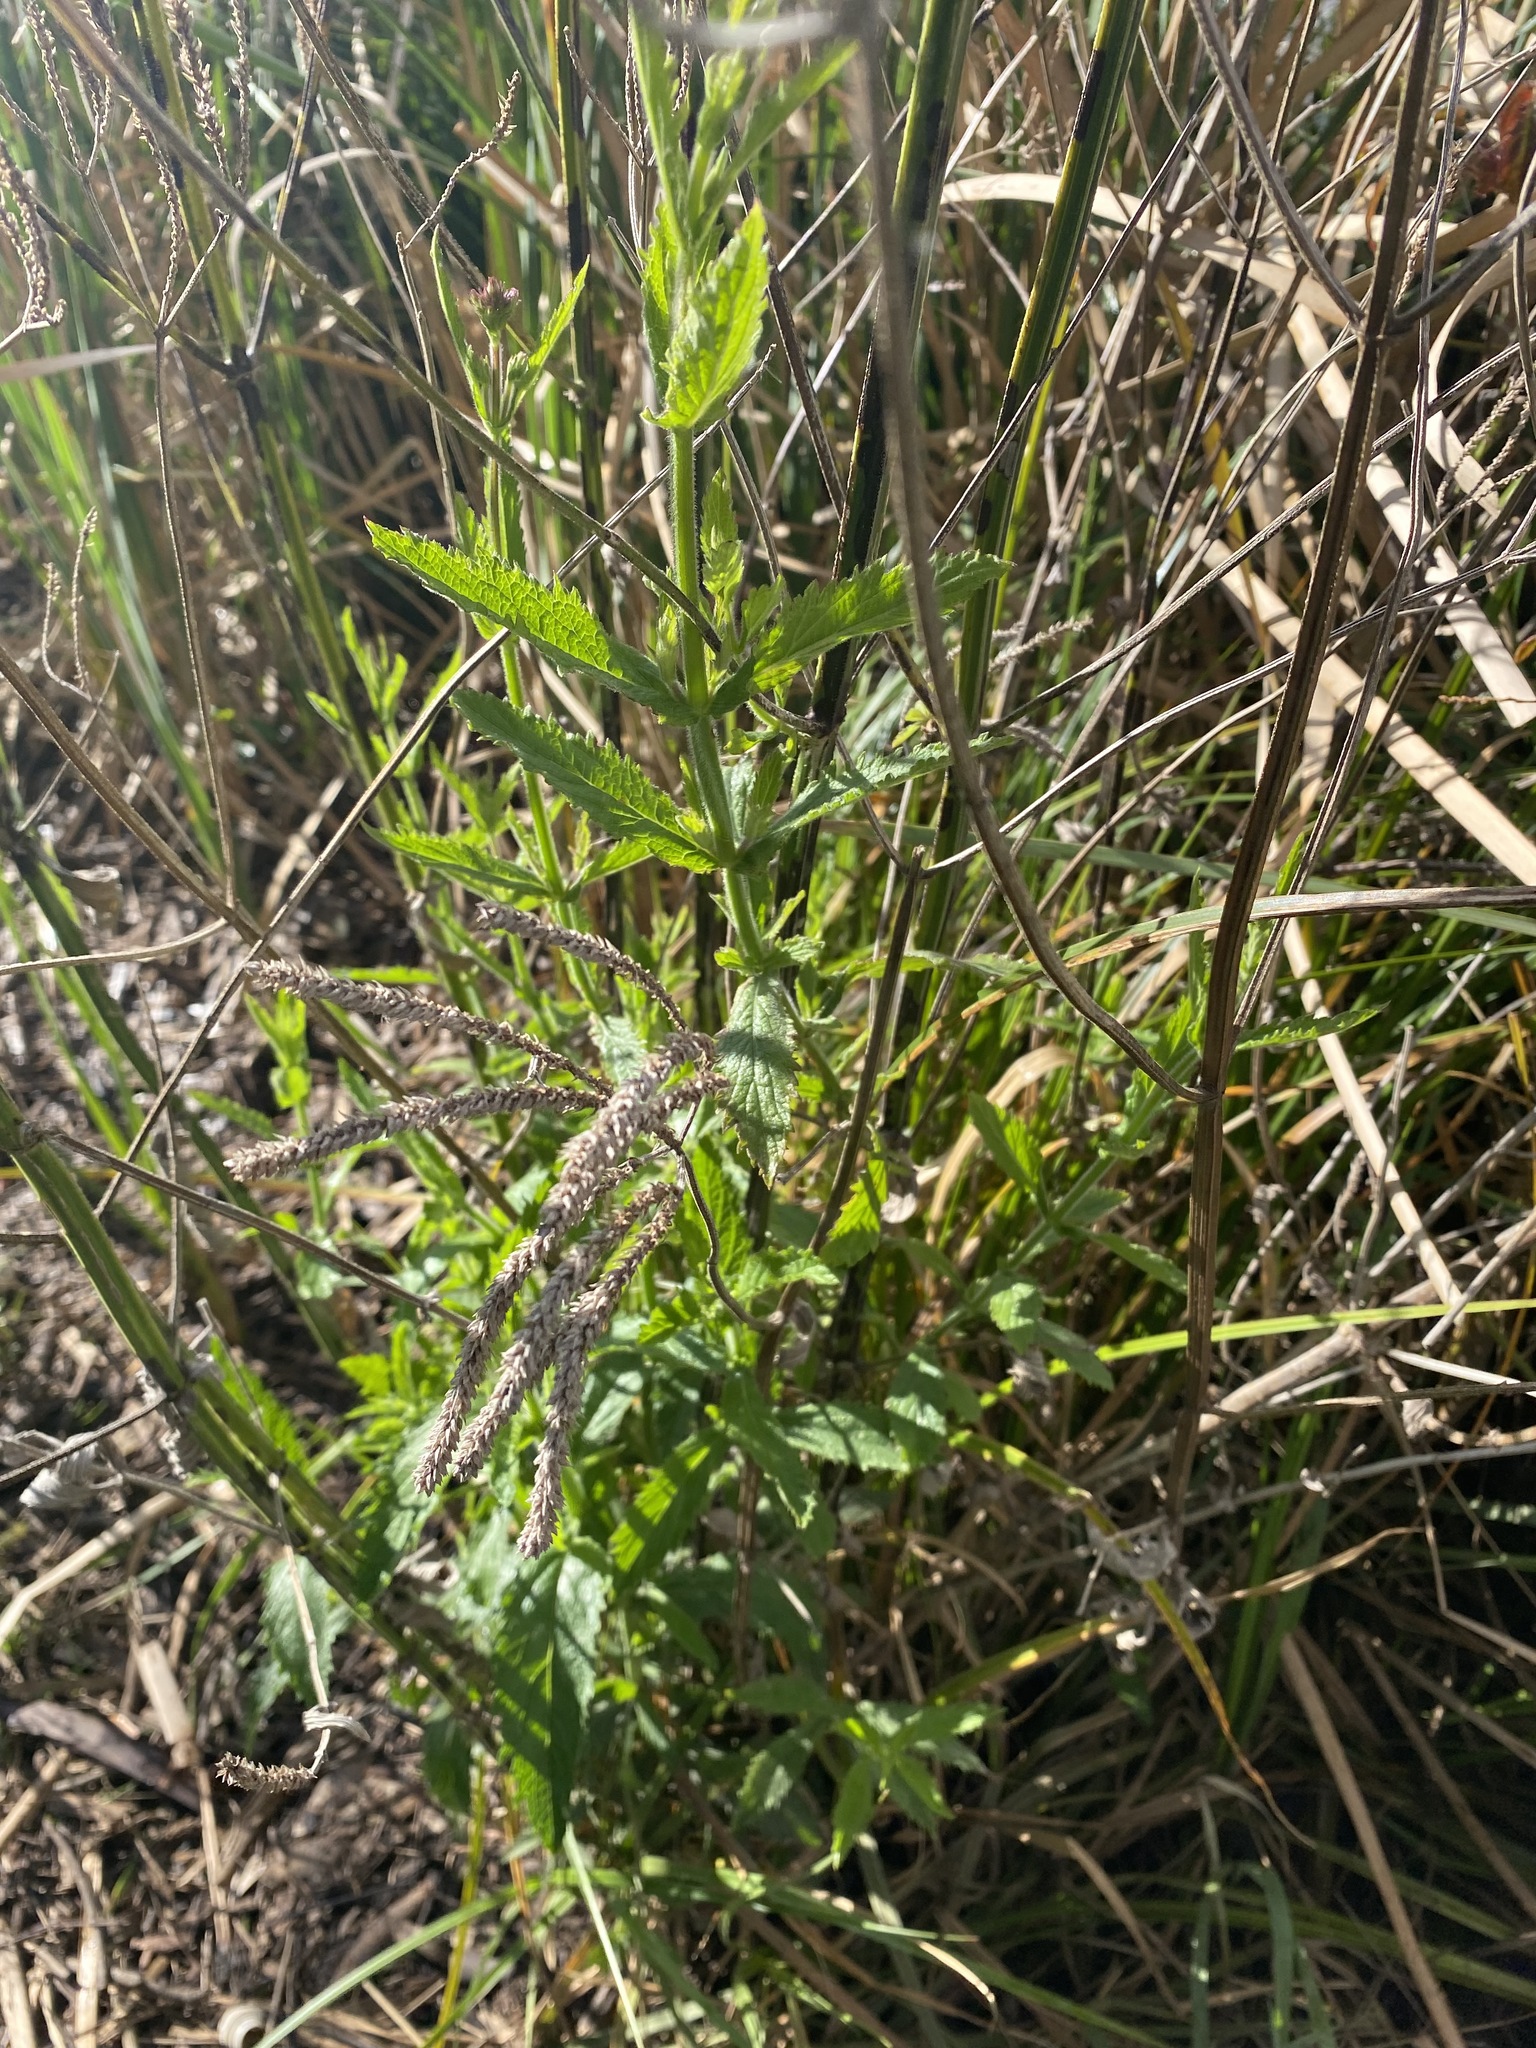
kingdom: Plantae
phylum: Tracheophyta
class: Magnoliopsida
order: Lamiales
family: Verbenaceae
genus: Verbena
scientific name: Verbena bonariensis
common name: Purpletop vervain
